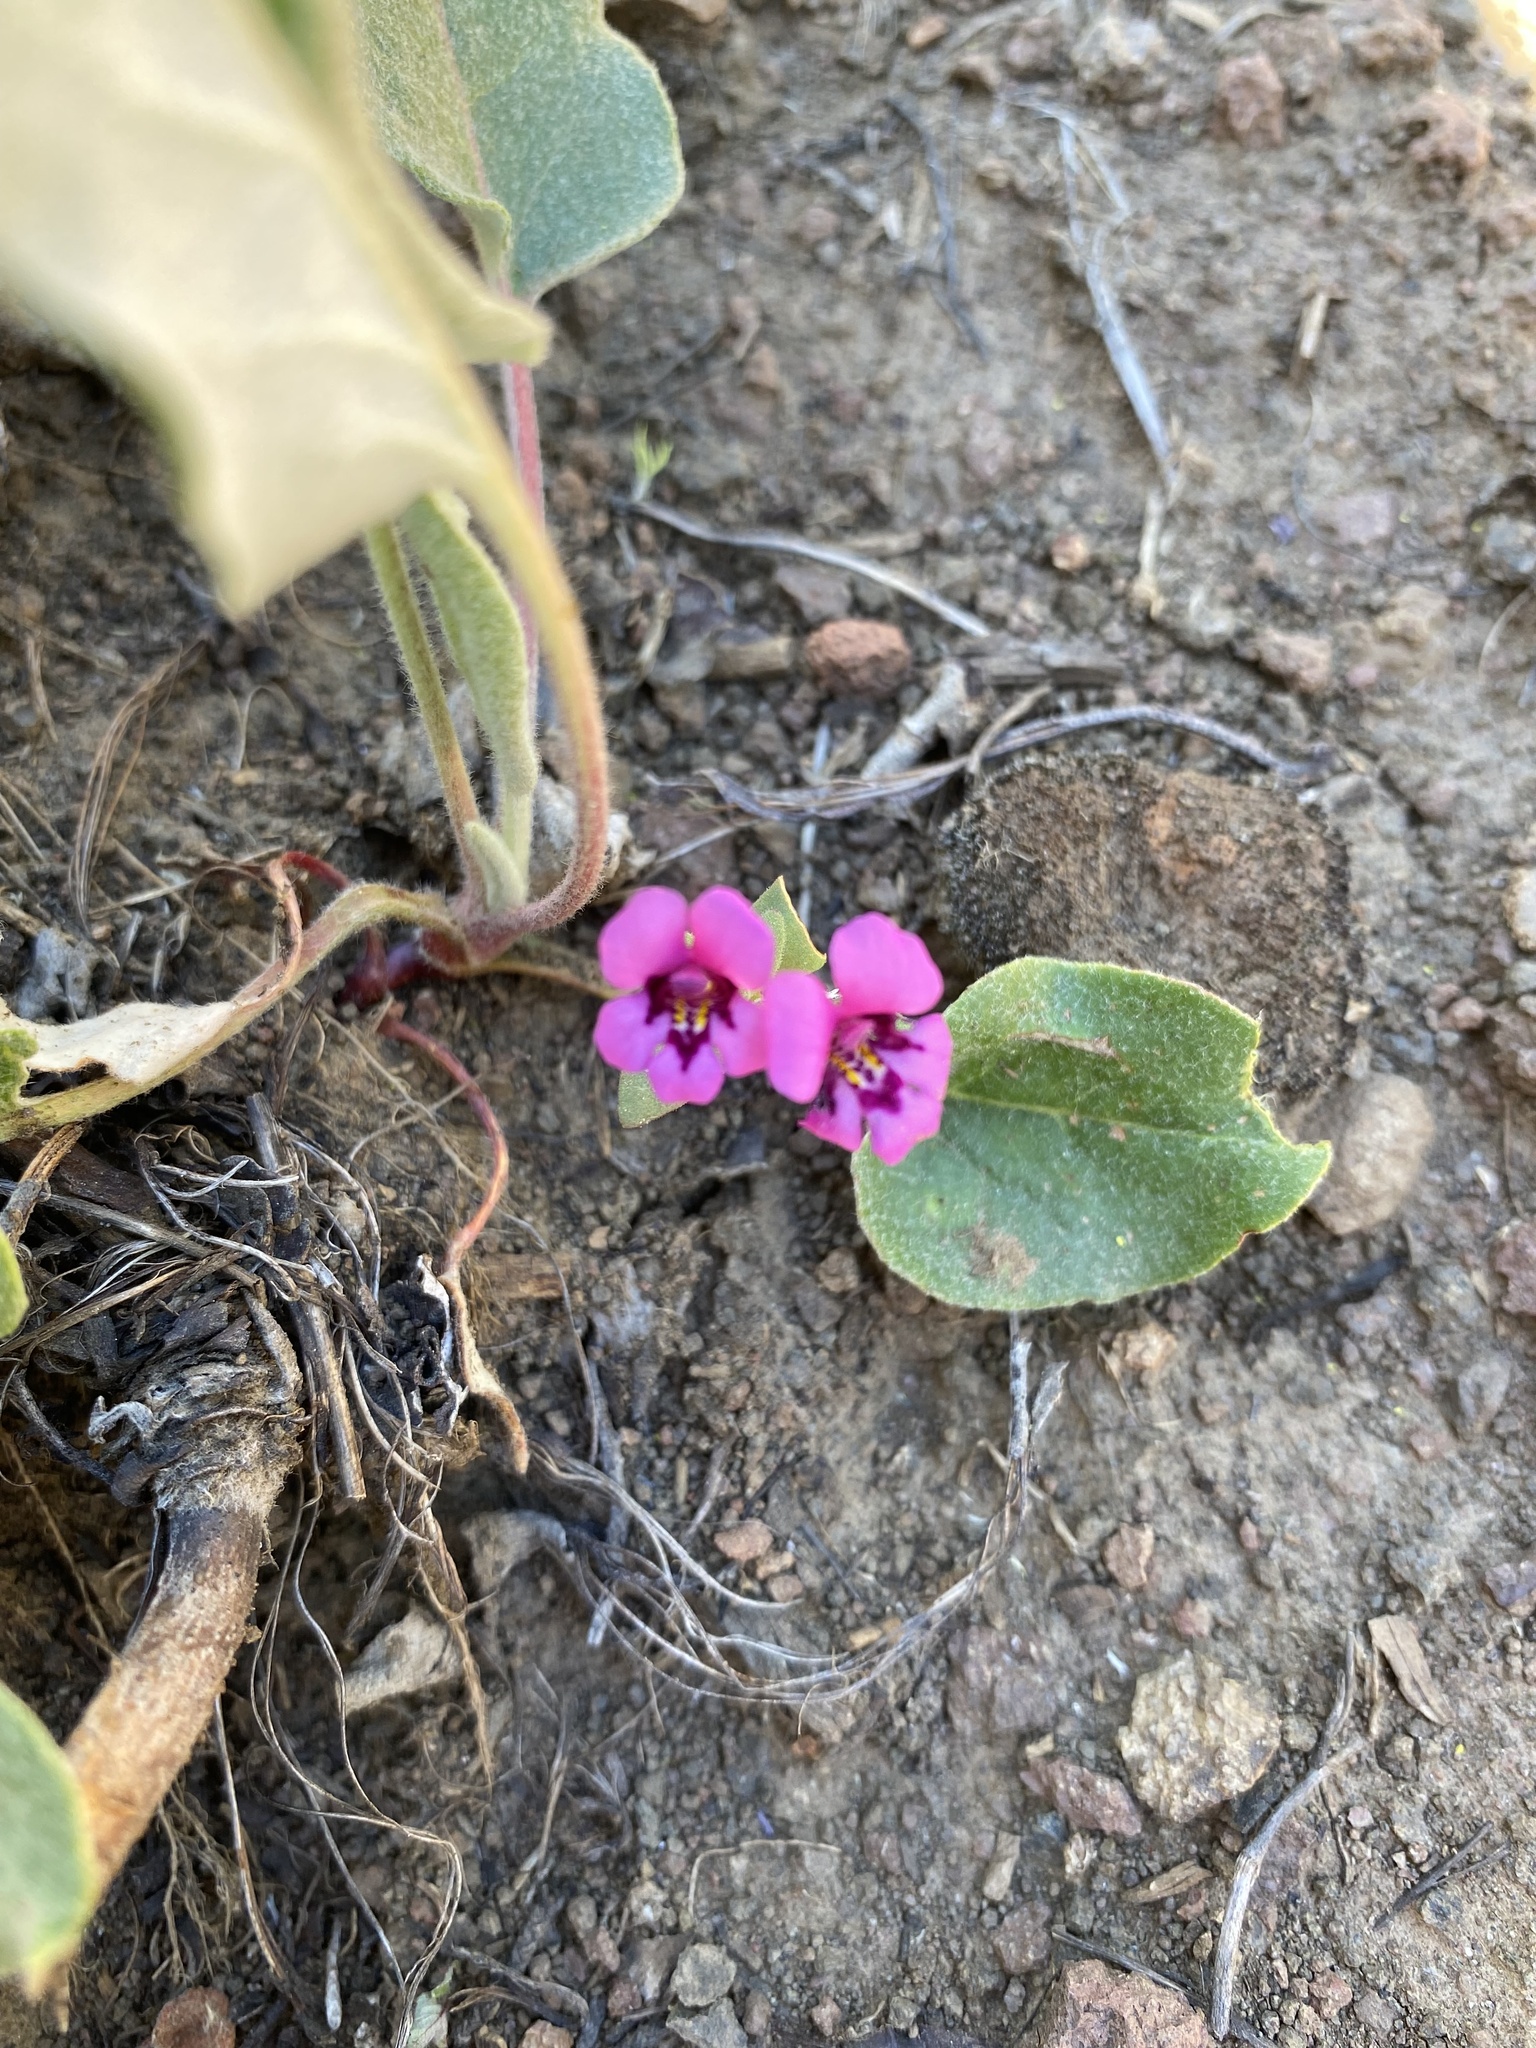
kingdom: Plantae
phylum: Tracheophyta
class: Magnoliopsida
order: Lamiales
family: Phrymaceae
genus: Diplacus
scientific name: Diplacus nanus
